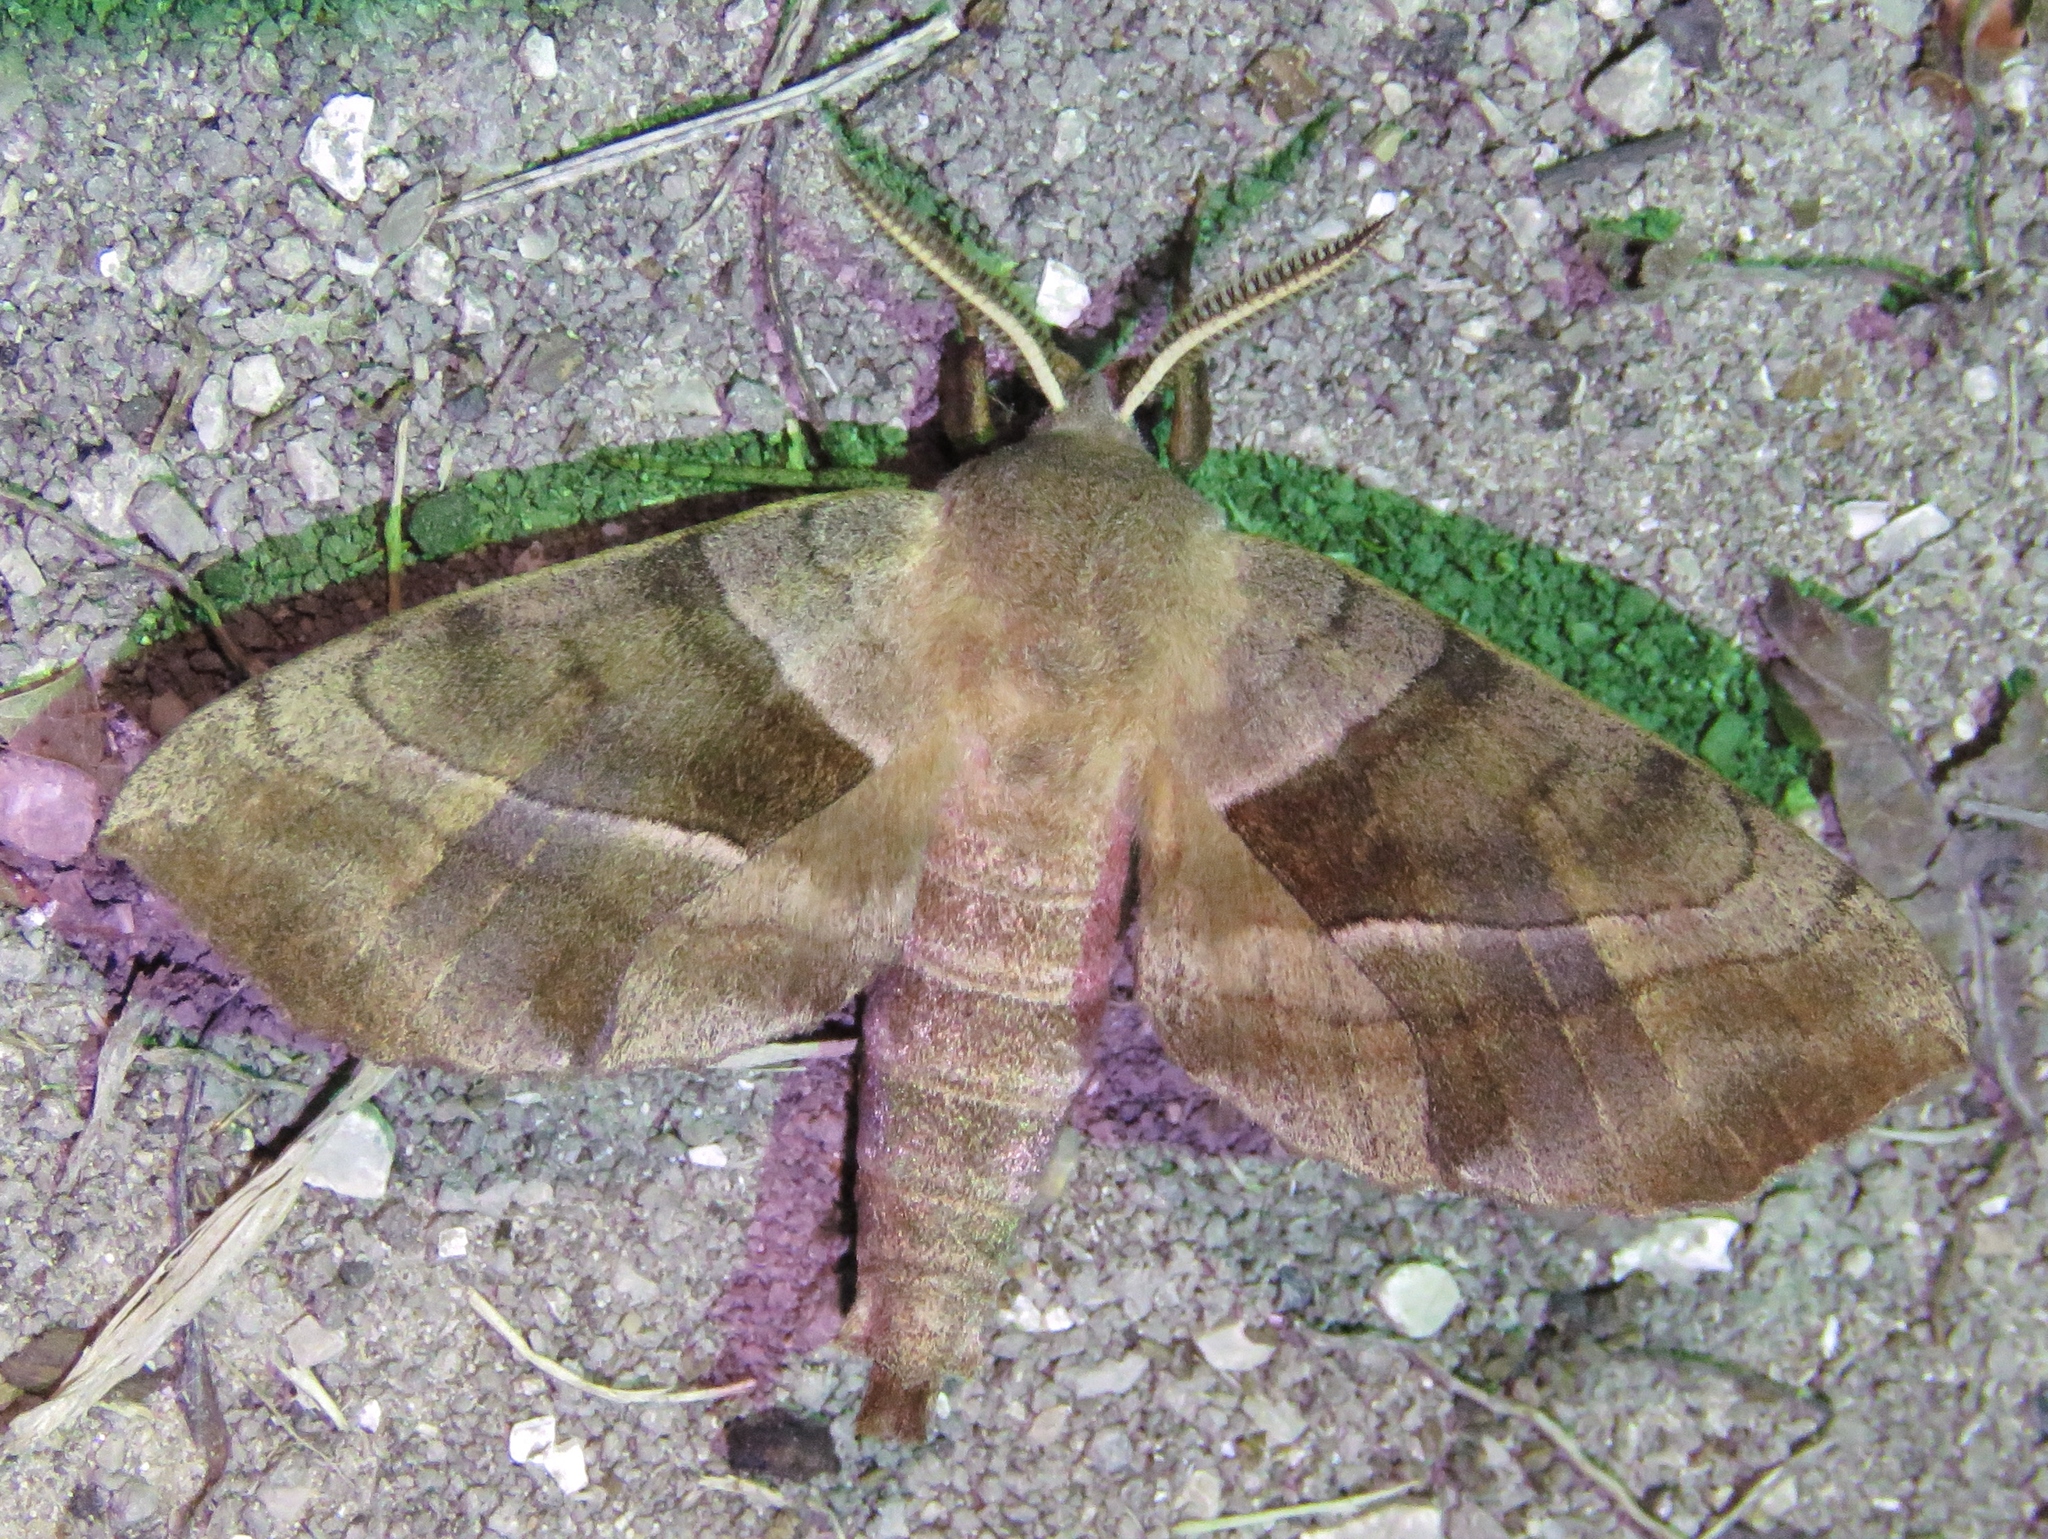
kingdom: Animalia
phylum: Arthropoda
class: Insecta
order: Lepidoptera
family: Sphingidae
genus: Amorpha
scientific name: Amorpha juglandis
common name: Walnut sphinx
